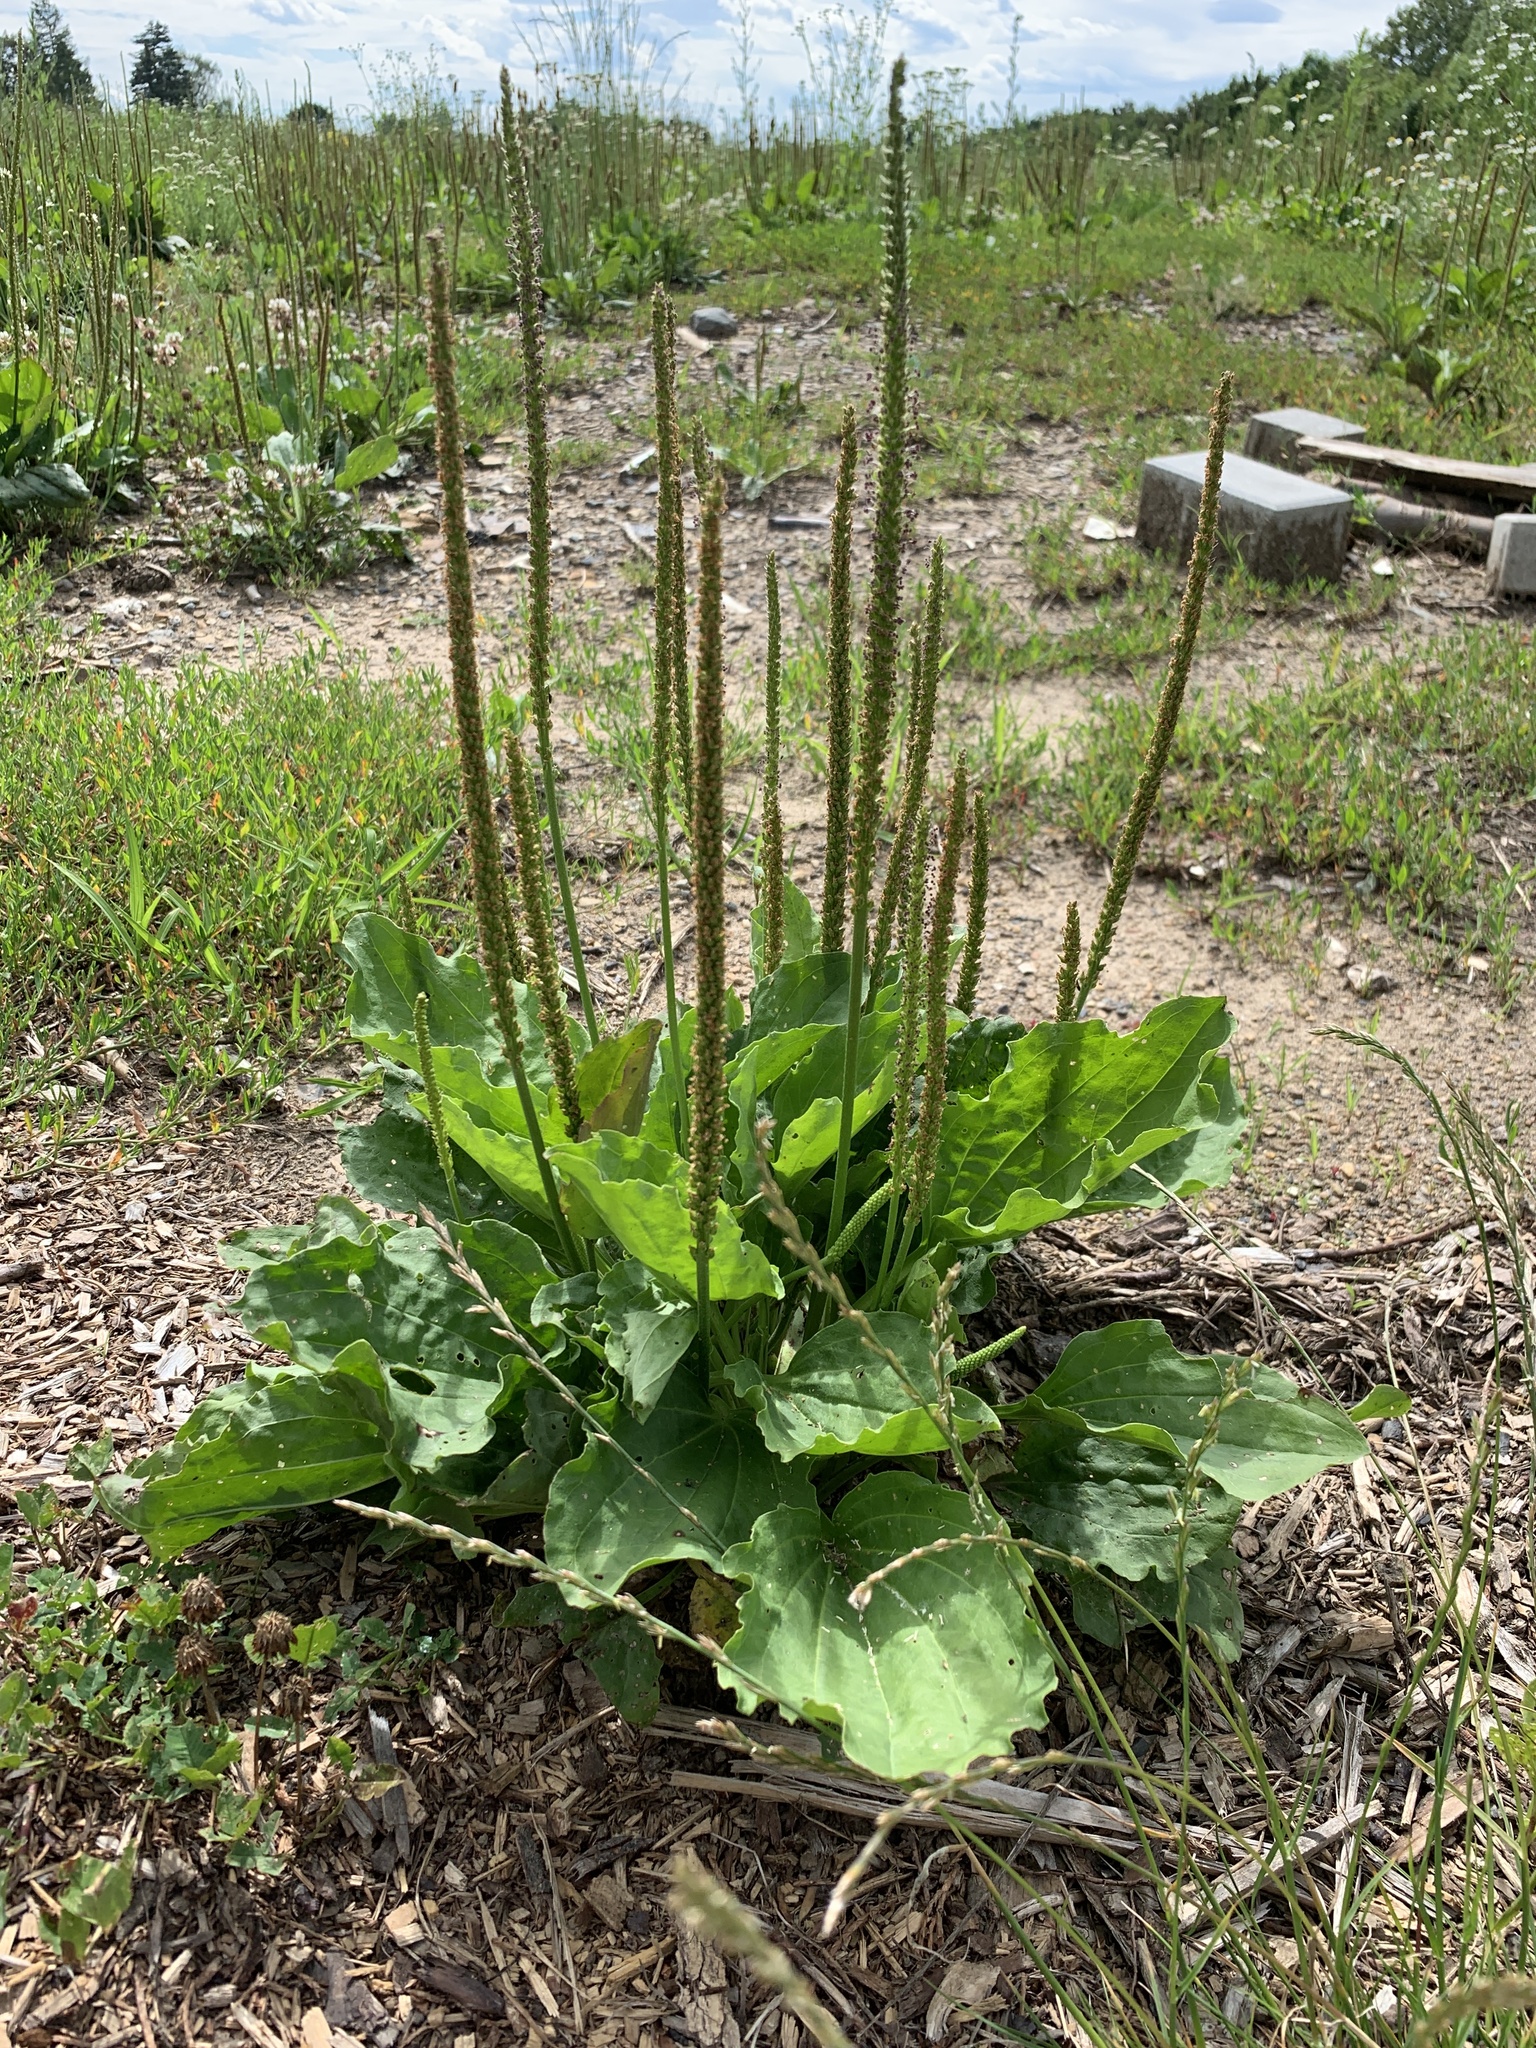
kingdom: Plantae
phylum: Tracheophyta
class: Magnoliopsida
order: Lamiales
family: Plantaginaceae
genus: Plantago
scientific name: Plantago major
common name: Common plantain
